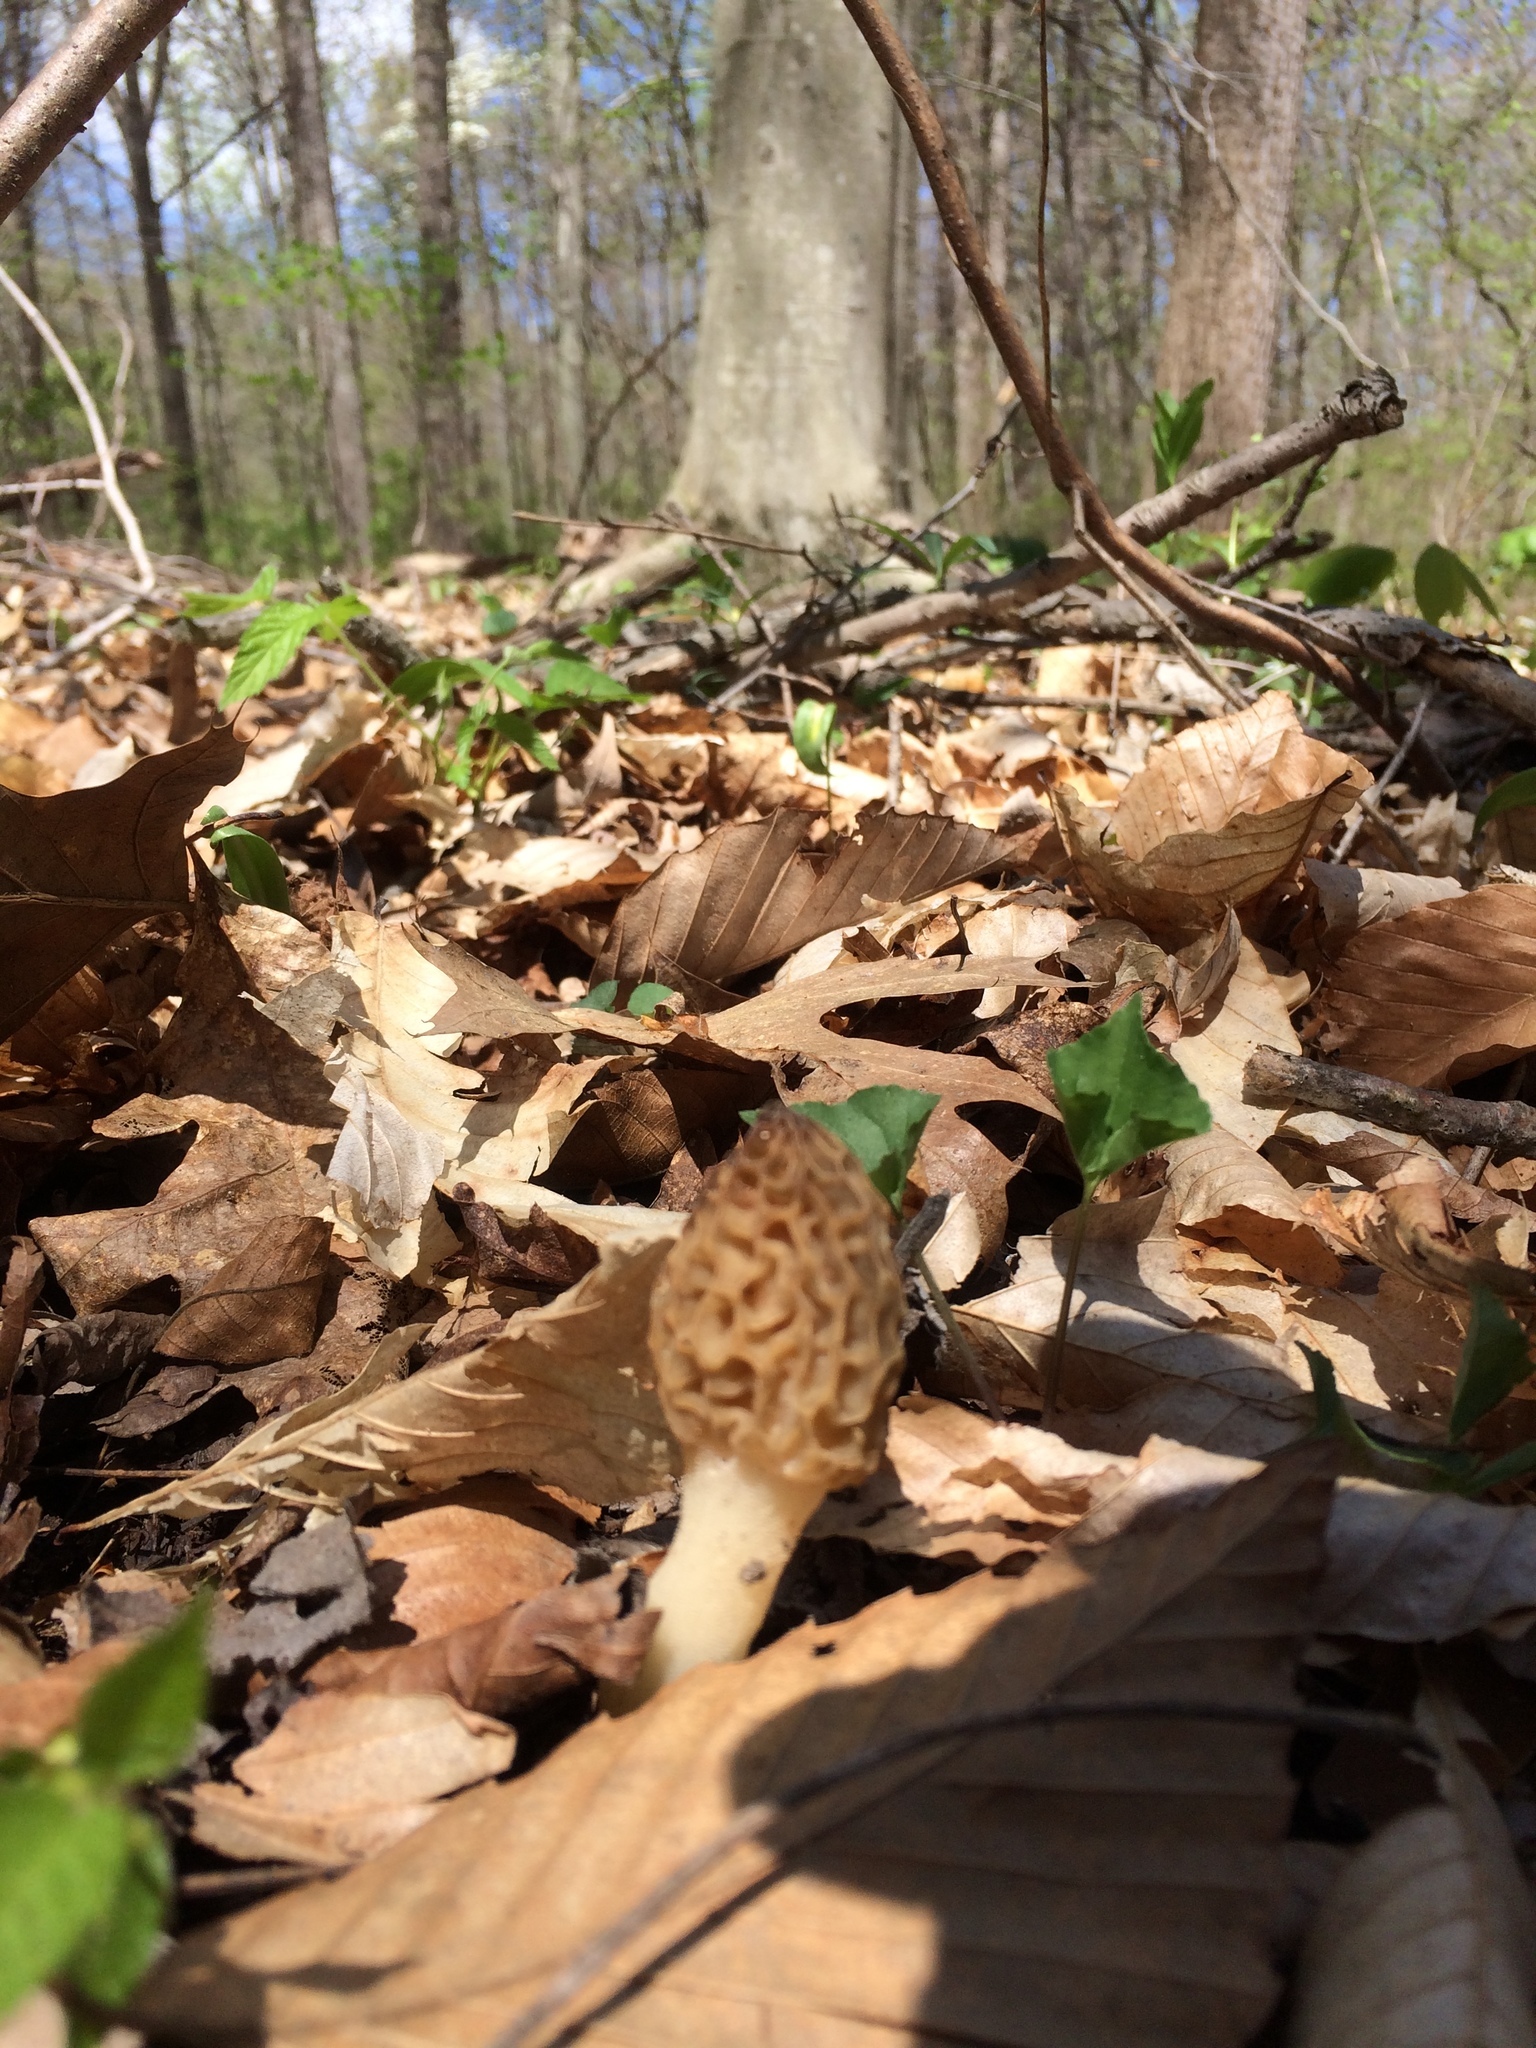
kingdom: Fungi
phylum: Ascomycota
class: Pezizomycetes
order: Pezizales
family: Morchellaceae
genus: Morchella
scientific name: Morchella americana
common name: White morel
